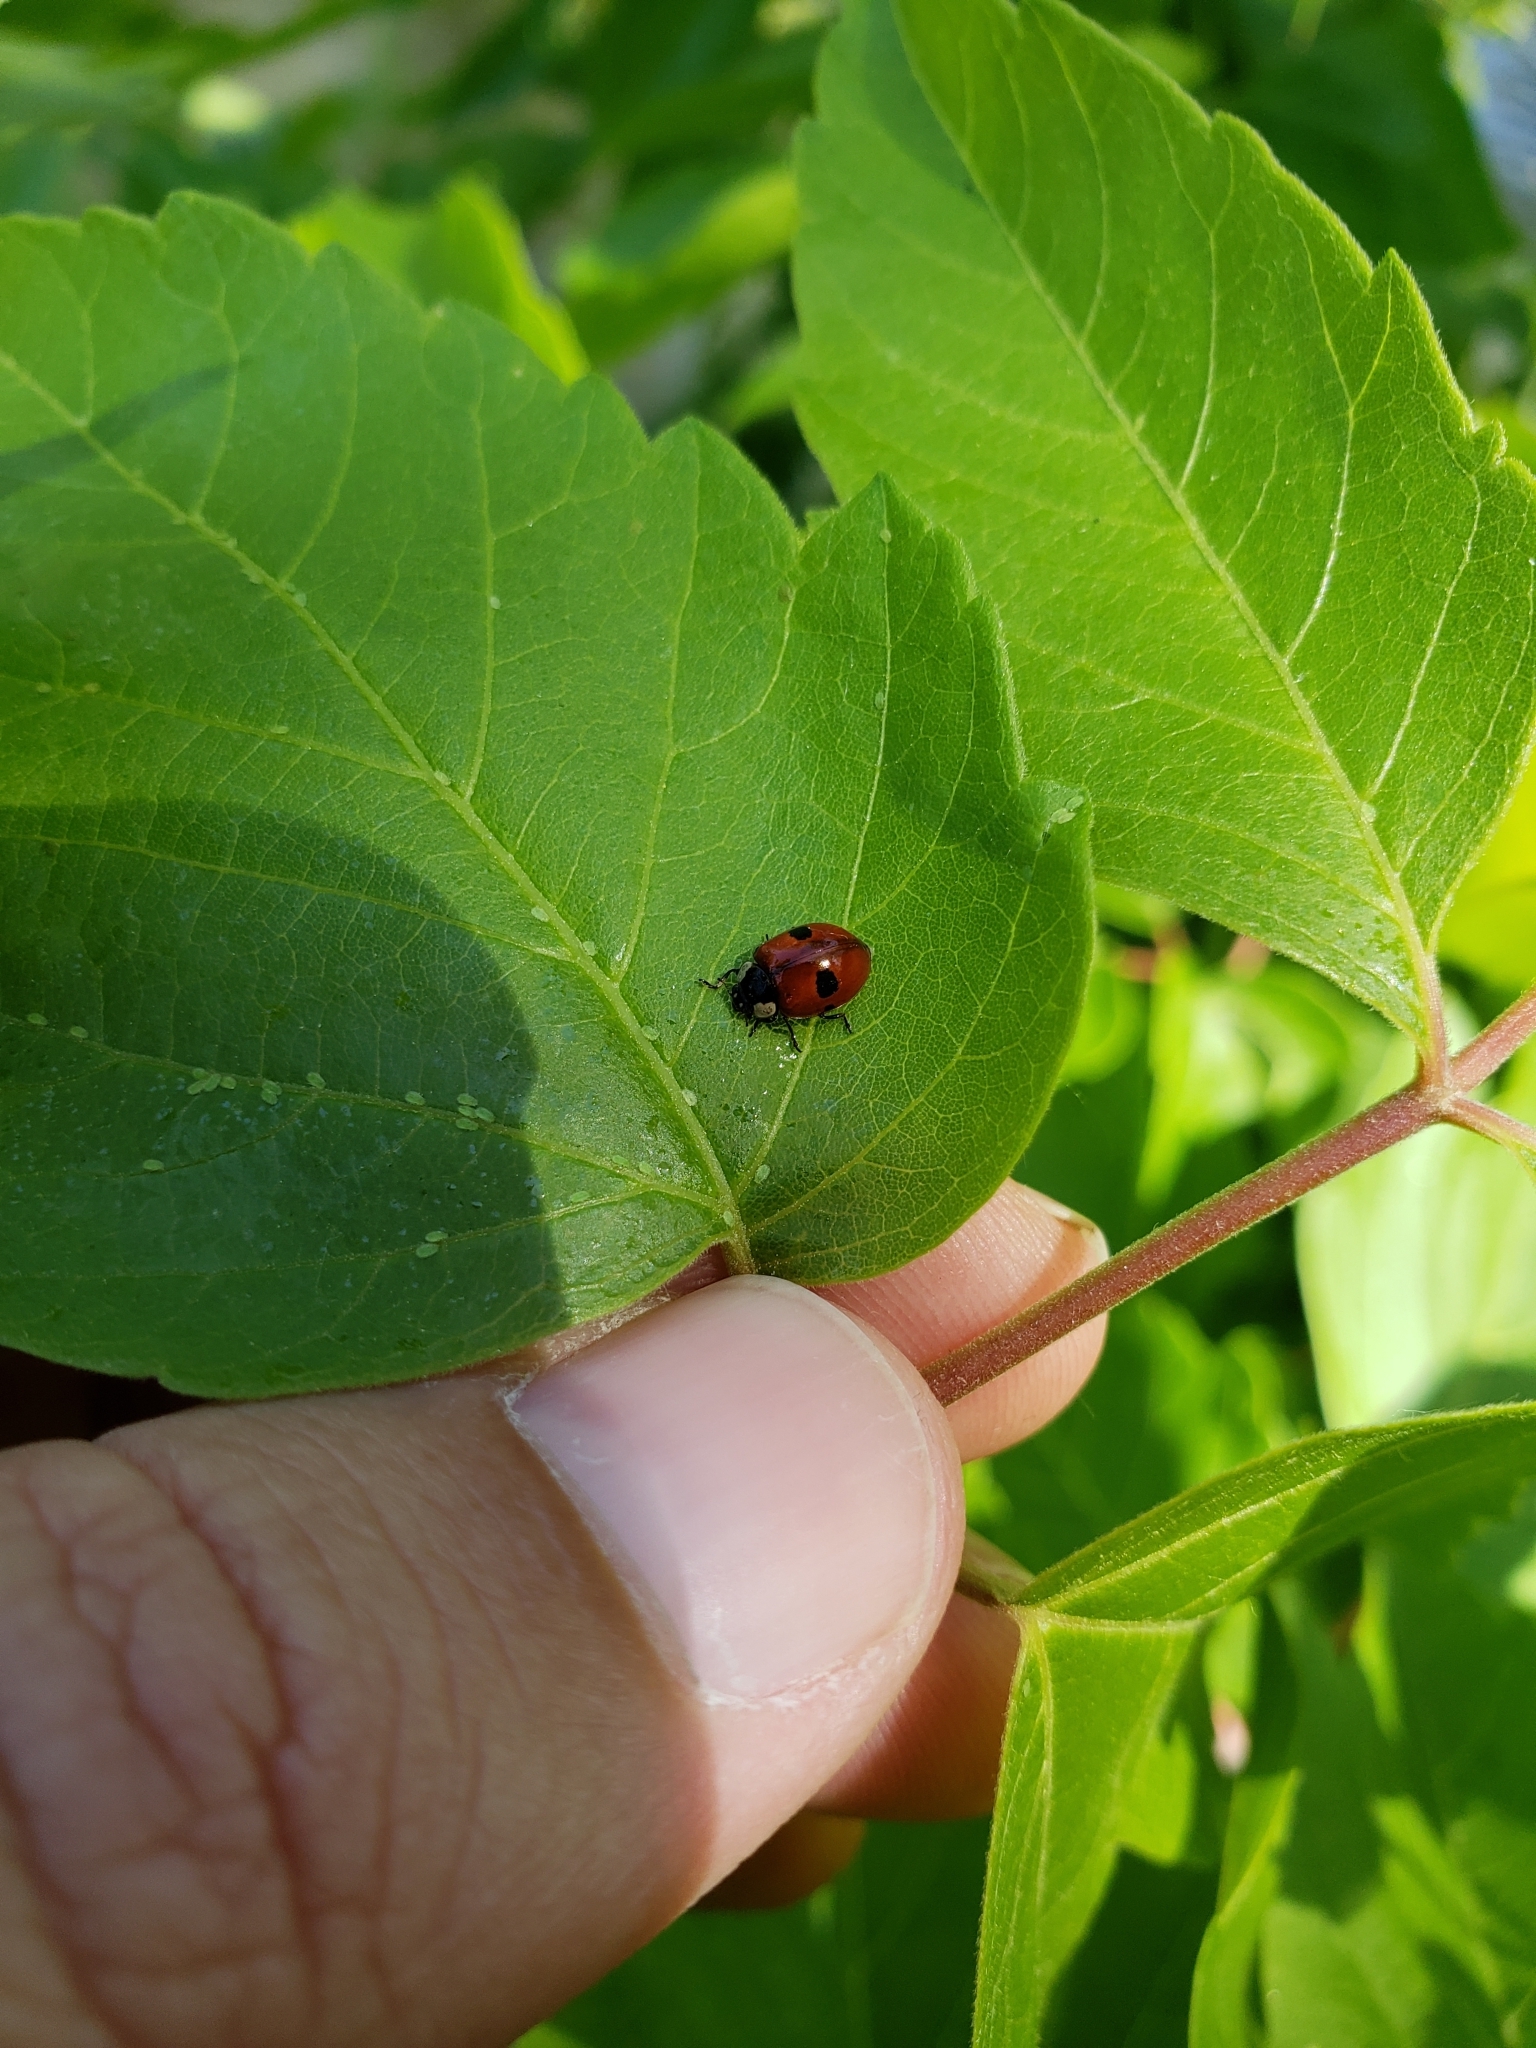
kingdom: Animalia
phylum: Arthropoda
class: Insecta
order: Coleoptera
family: Coccinellidae
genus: Adalia
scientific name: Adalia bipunctata
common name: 2-spot ladybird
